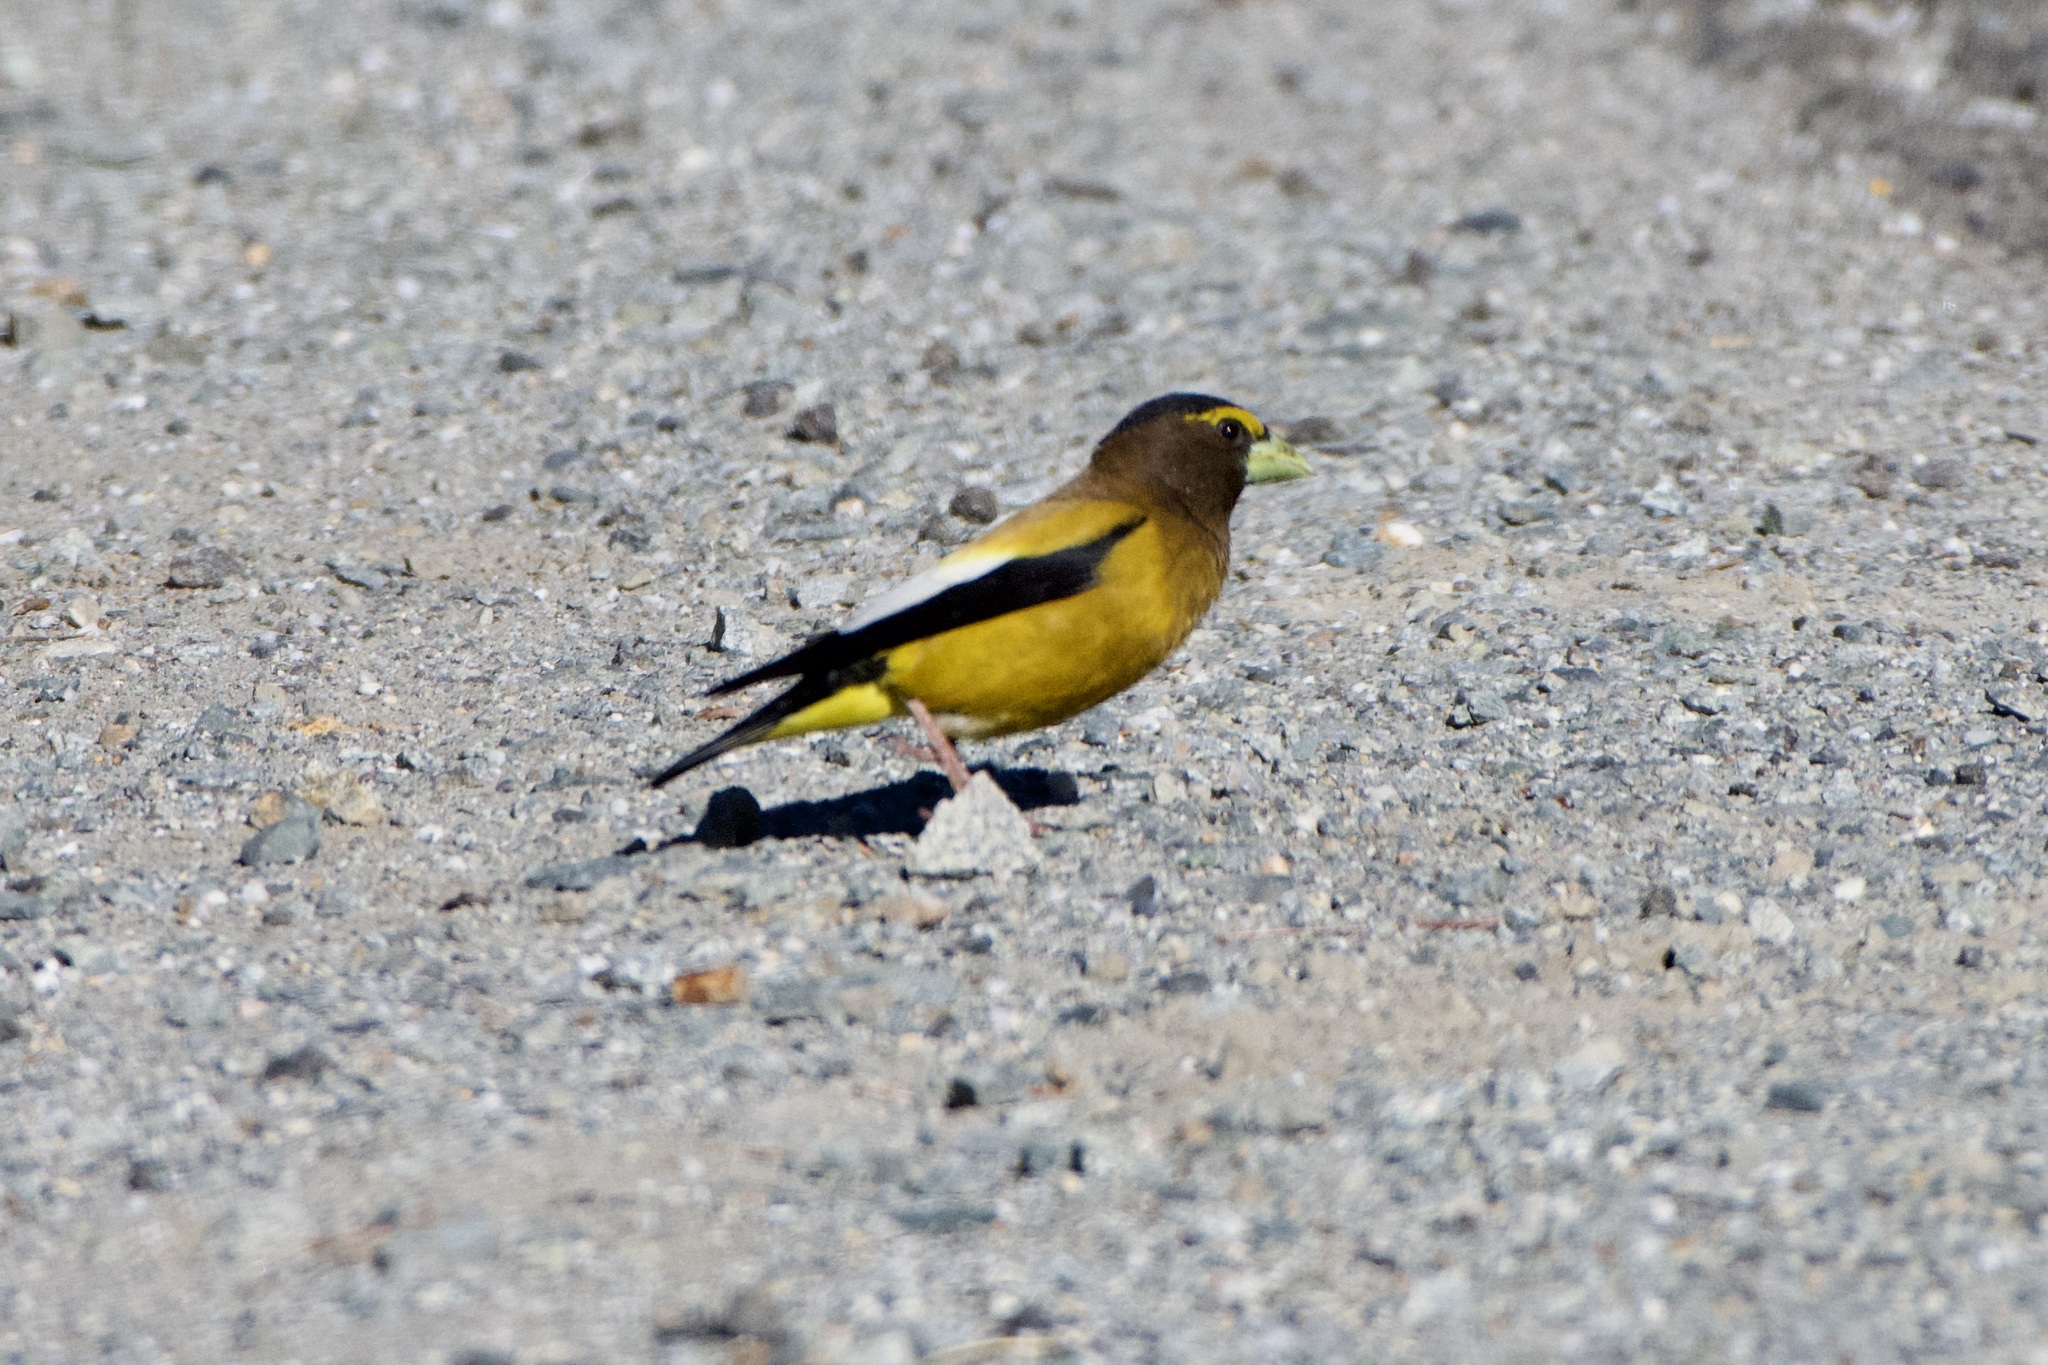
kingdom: Animalia
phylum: Chordata
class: Aves
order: Passeriformes
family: Fringillidae
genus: Hesperiphona
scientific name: Hesperiphona vespertina
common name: Evening grosbeak
